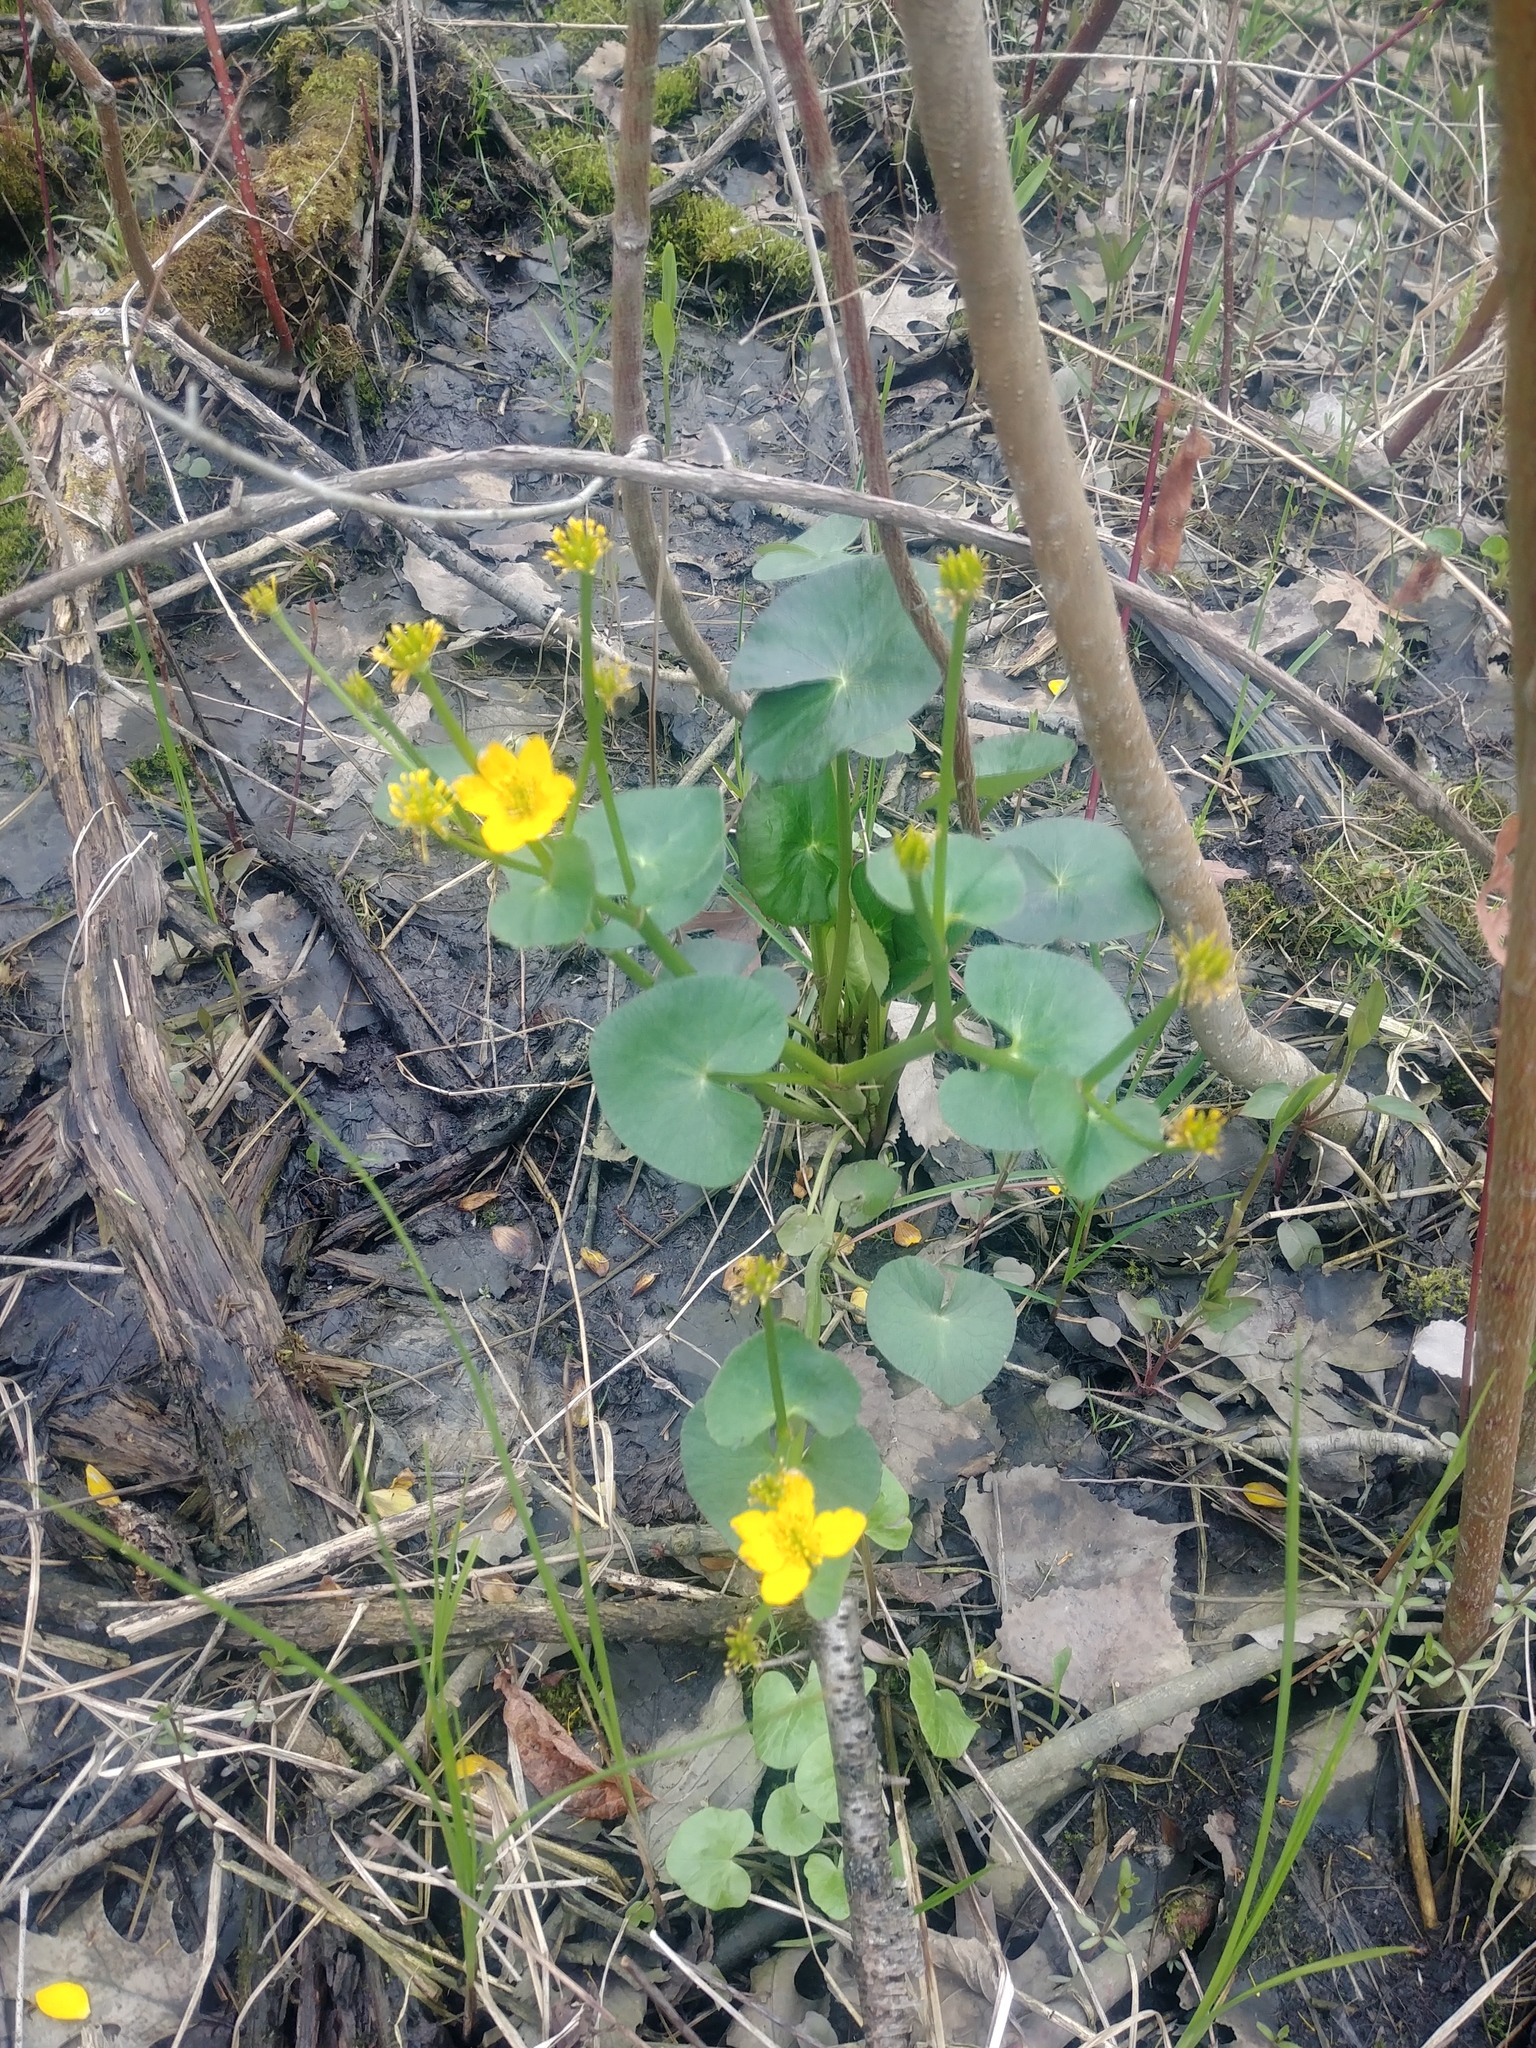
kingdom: Plantae
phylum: Tracheophyta
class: Magnoliopsida
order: Ranunculales
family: Ranunculaceae
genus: Caltha
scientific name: Caltha palustris
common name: Marsh marigold
